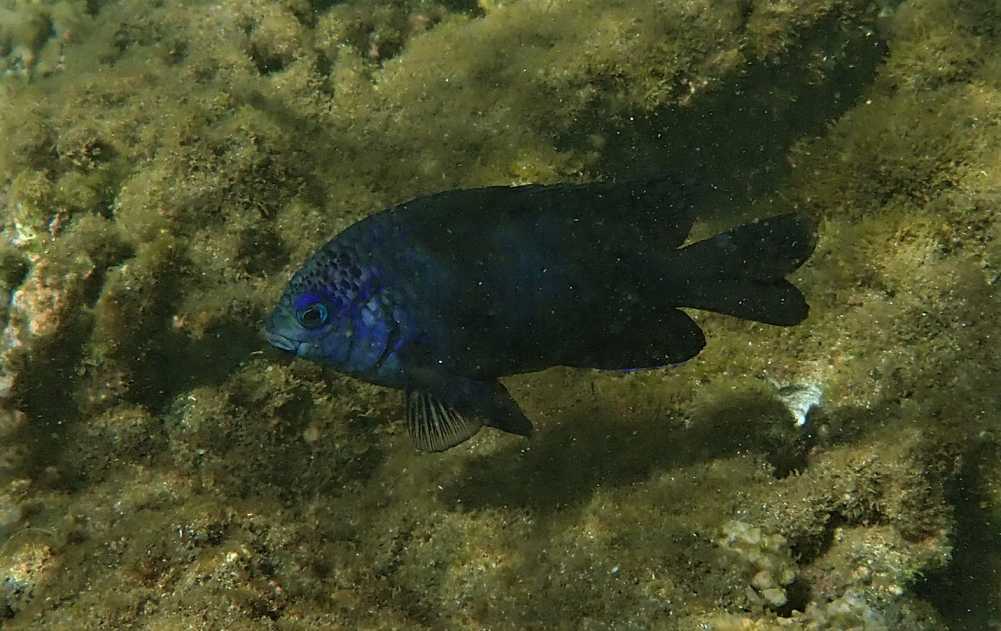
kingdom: Animalia
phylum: Chordata
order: Perciformes
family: Pomacentridae
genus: Stegastes
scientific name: Stegastes limbatus
